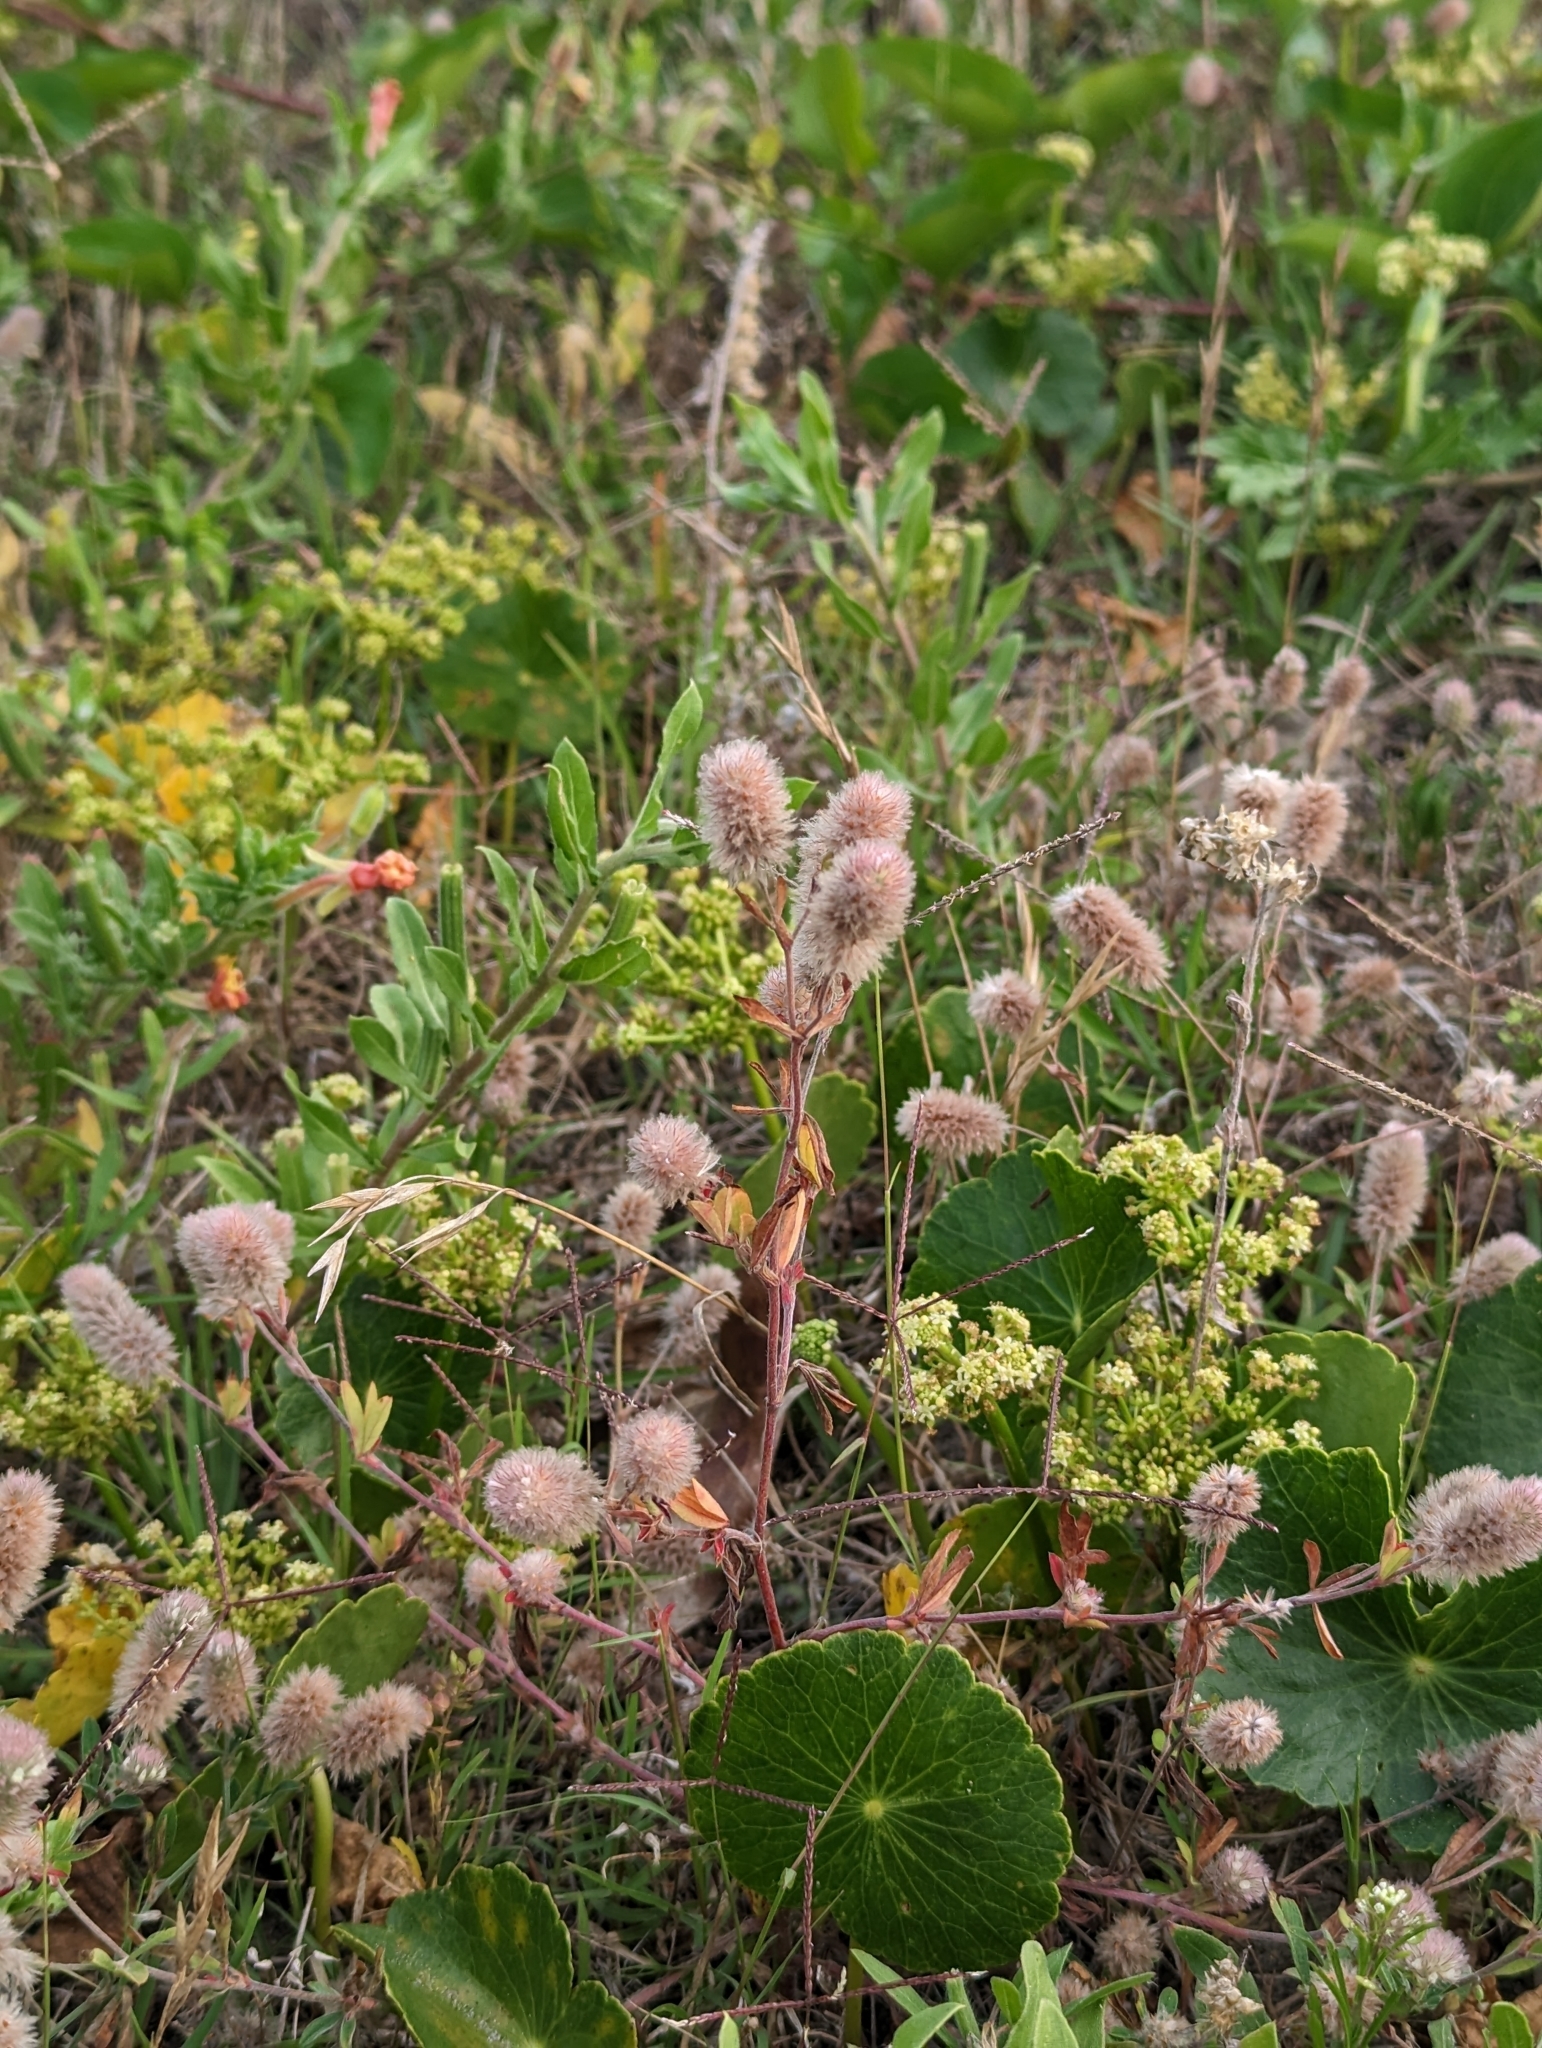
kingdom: Plantae
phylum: Tracheophyta
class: Magnoliopsida
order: Fabales
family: Fabaceae
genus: Trifolium
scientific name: Trifolium arvense
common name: Hare's-foot clover
